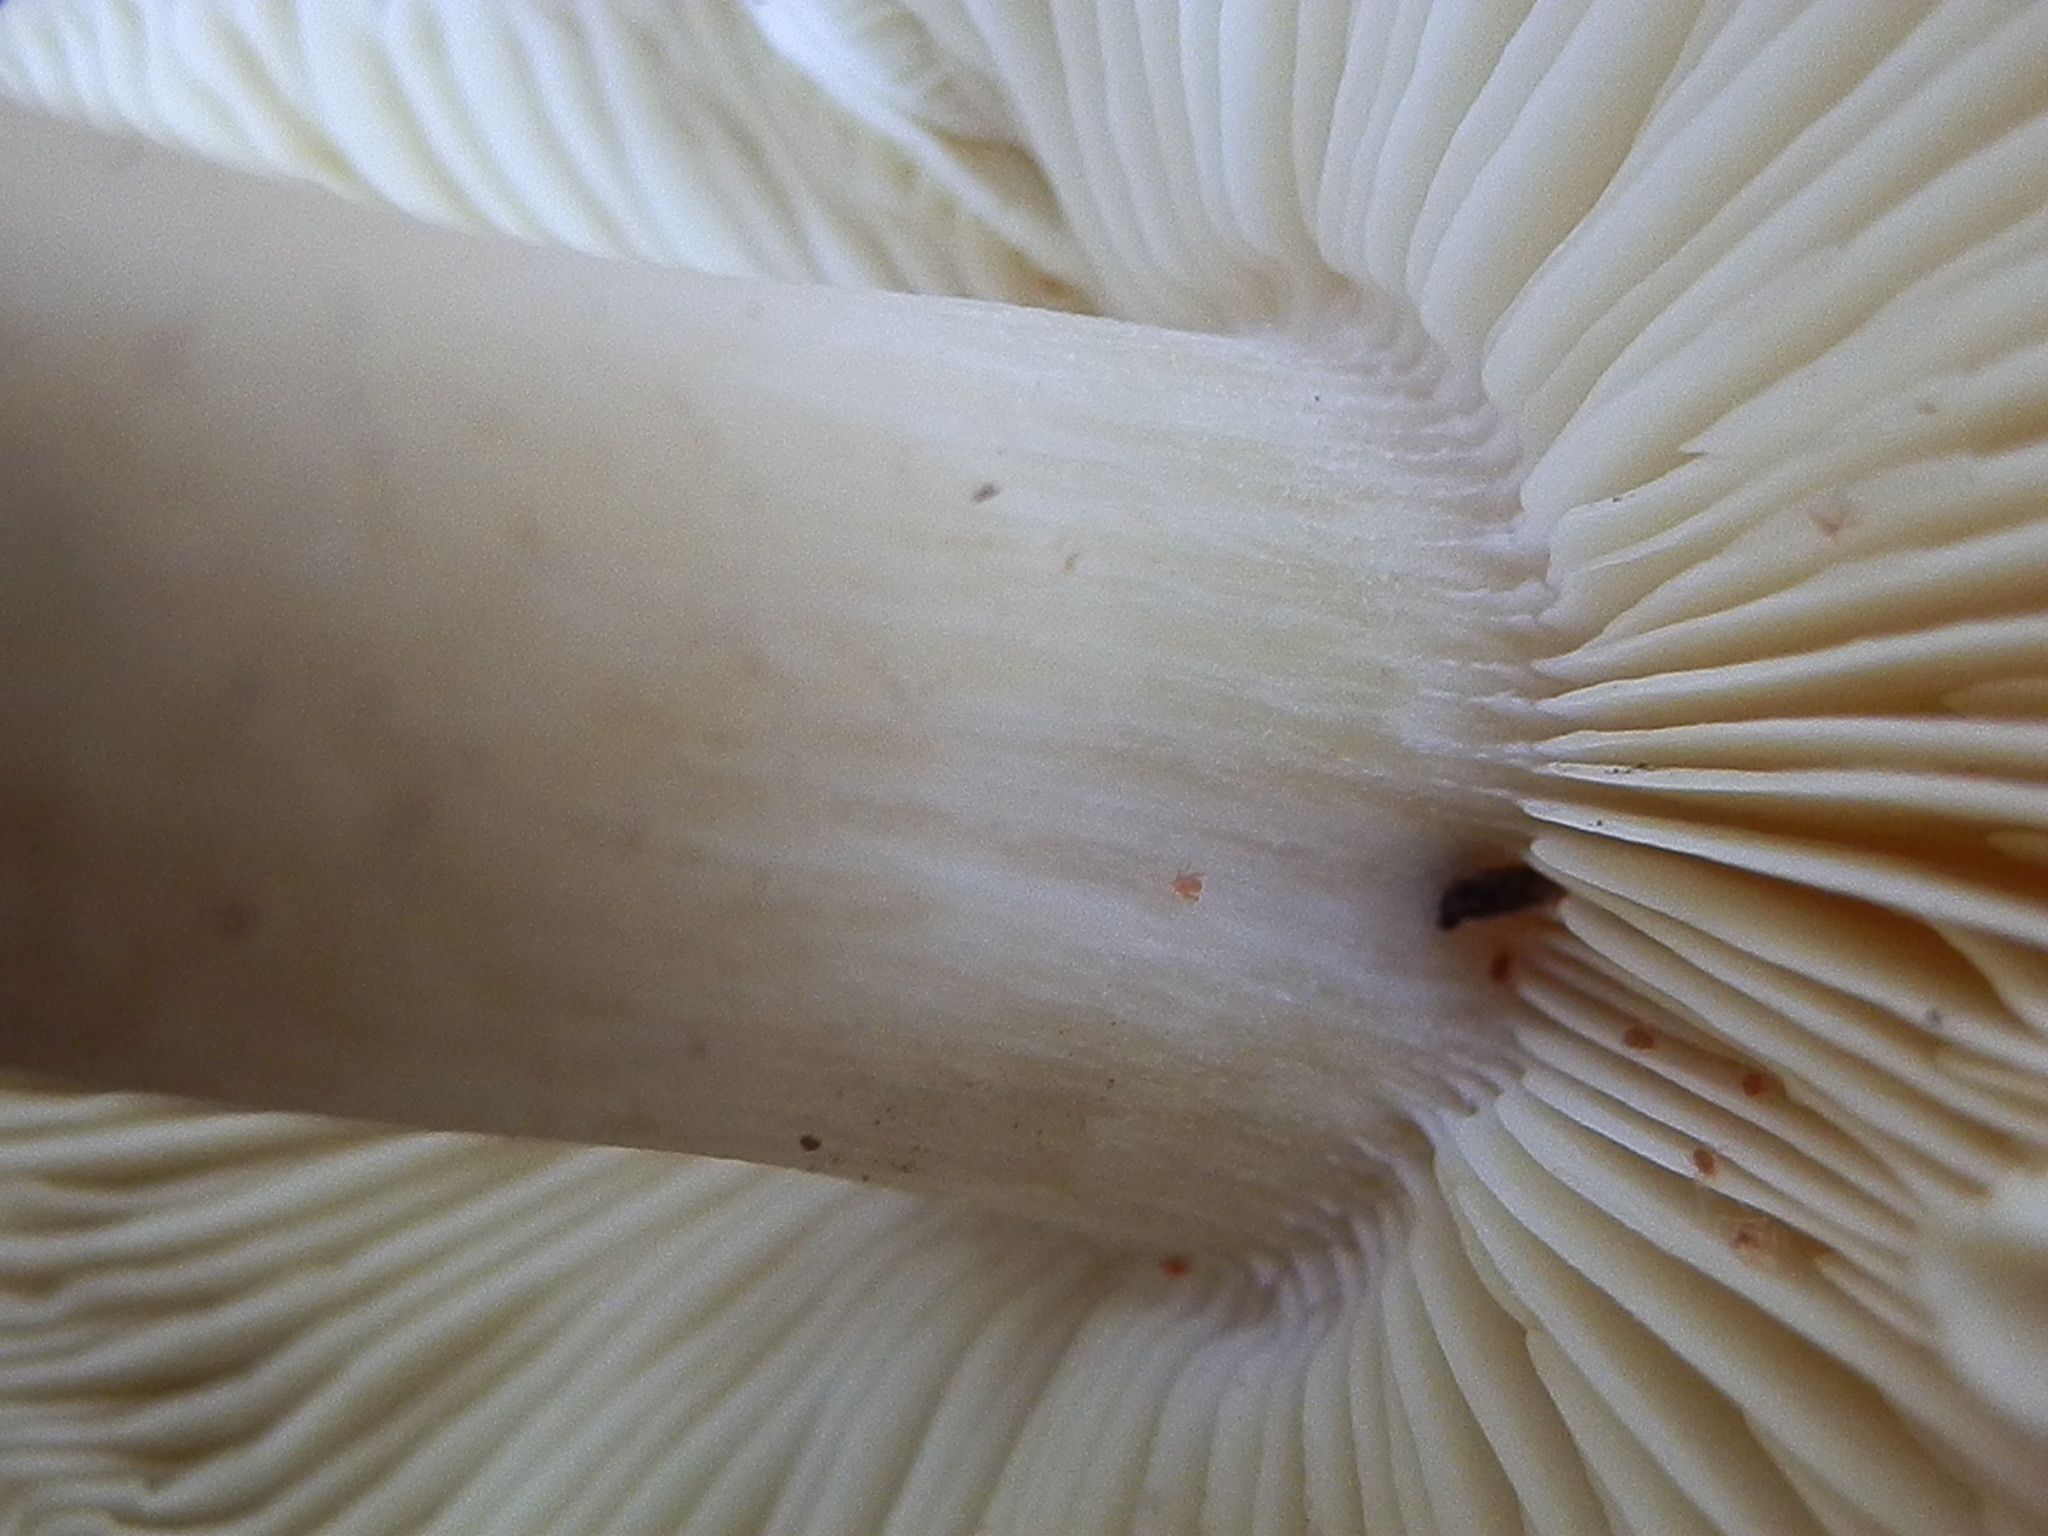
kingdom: Fungi
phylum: Basidiomycota
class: Agaricomycetes
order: Agaricales
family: Tricholomataceae
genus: Tricholoma
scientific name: Tricholoma saponaceum
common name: Soapy trich
